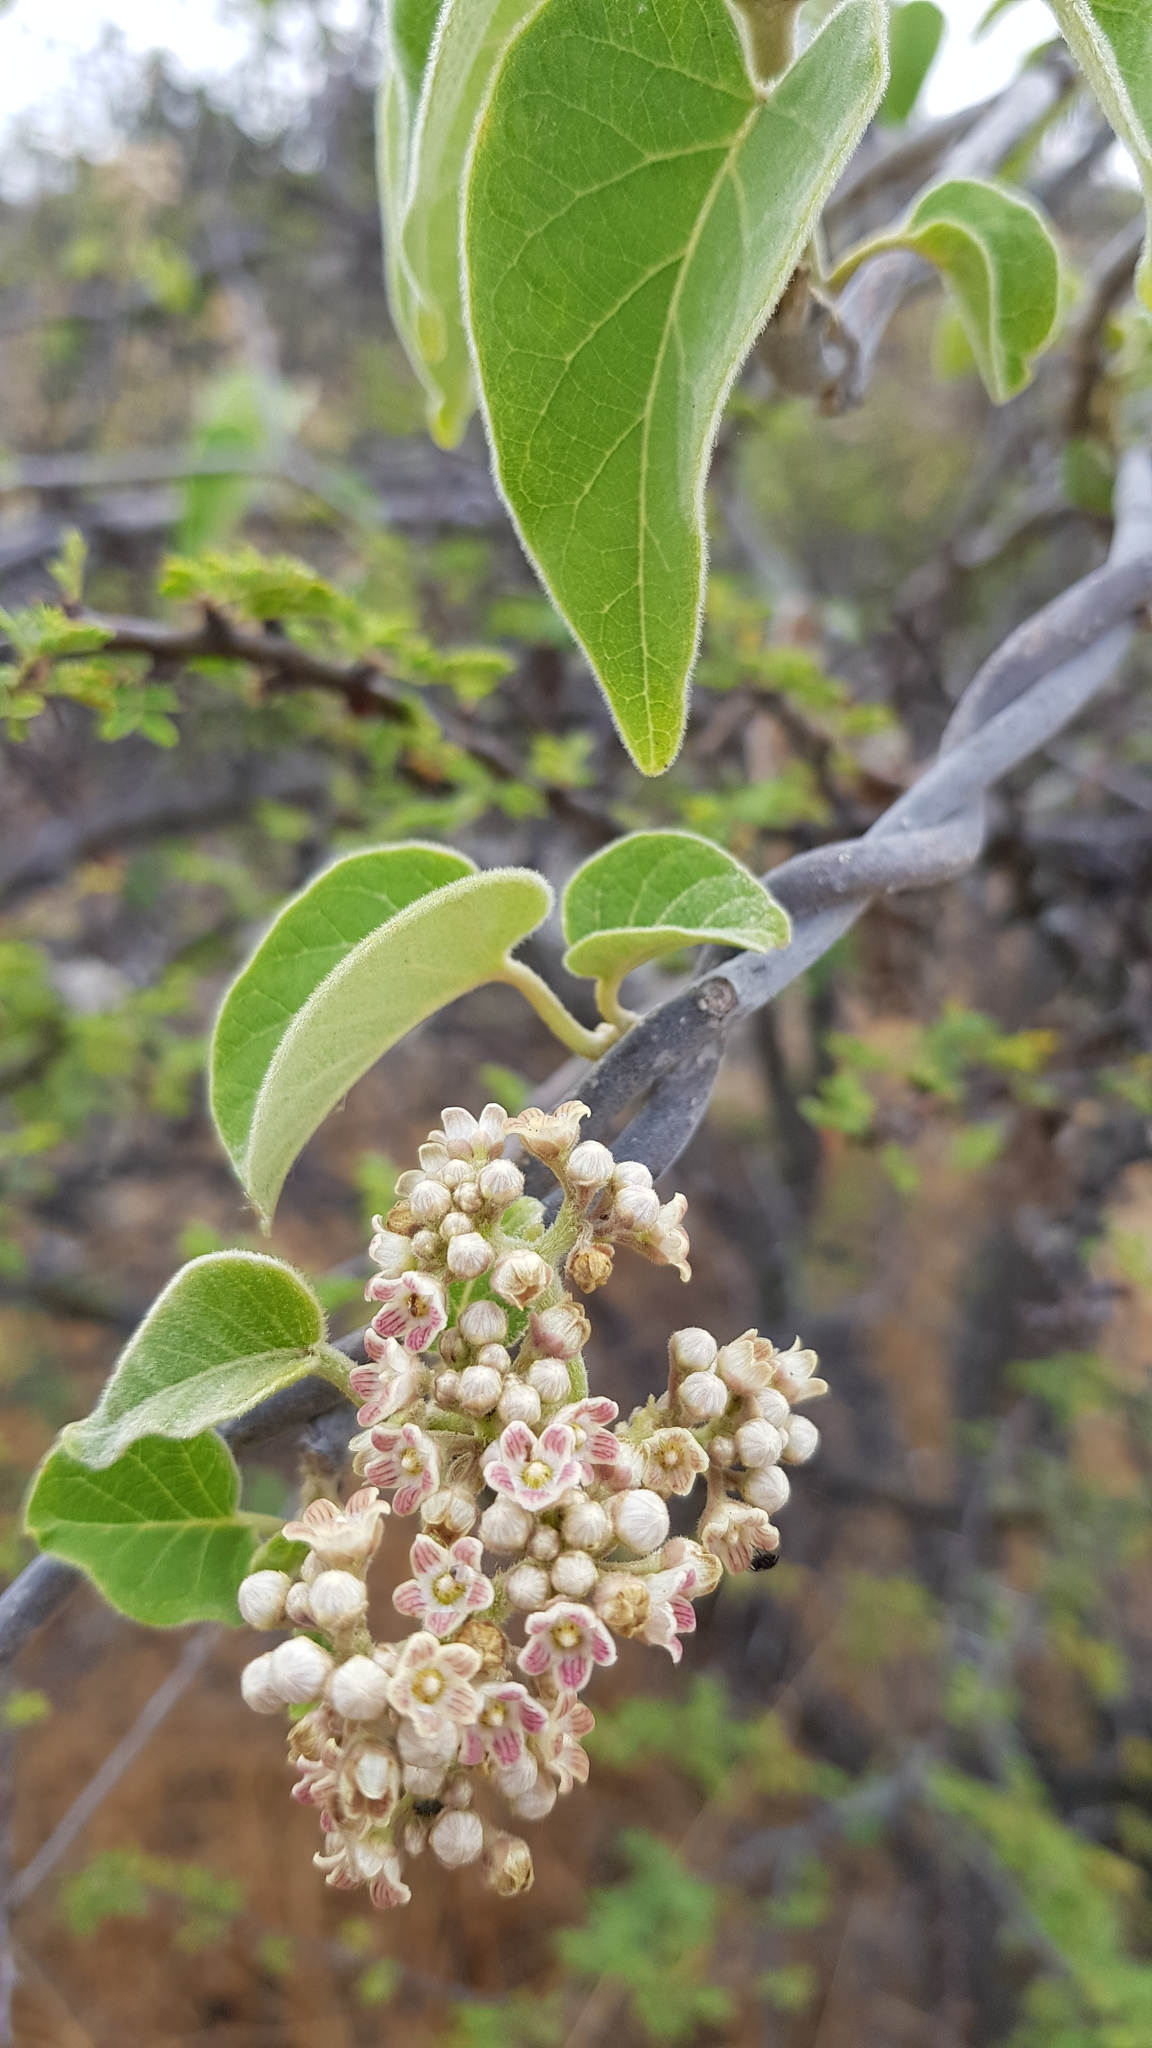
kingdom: Plantae
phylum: Tracheophyta
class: Magnoliopsida
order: Gentianales
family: Apocynaceae
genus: Ruehssia
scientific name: Ruehssia mexicana
